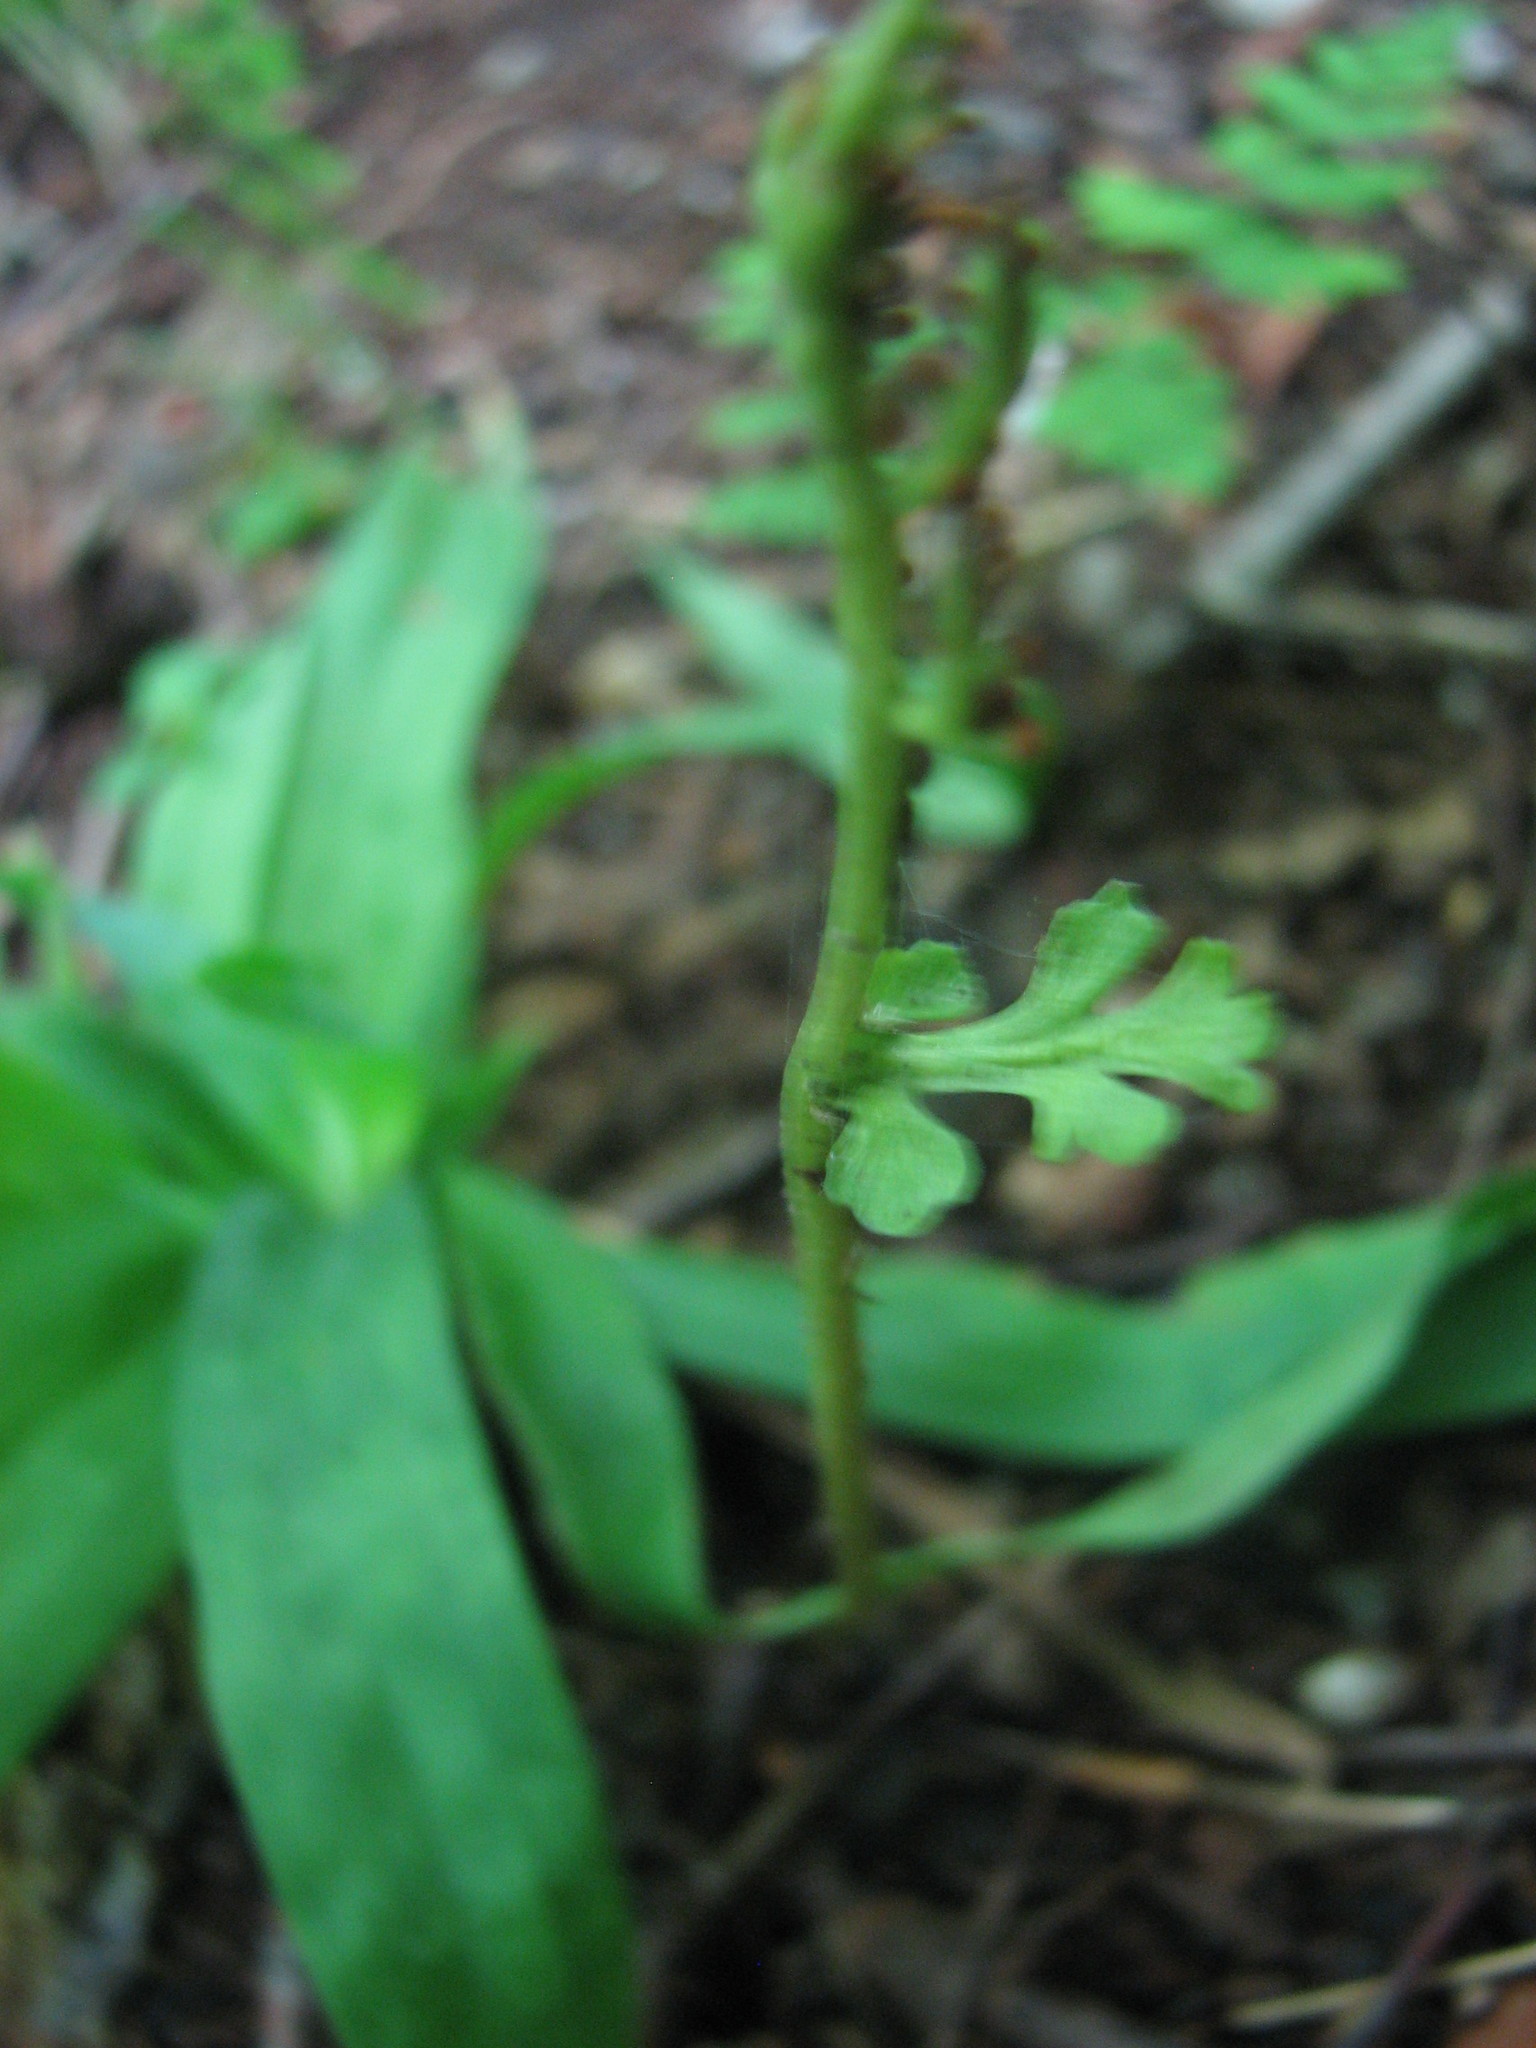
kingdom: Plantae
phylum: Tracheophyta
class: Polypodiopsida
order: Ophioglossales
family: Ophioglossaceae
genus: Botrychium
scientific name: Botrychium matricariifolium
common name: Branched moonwort
